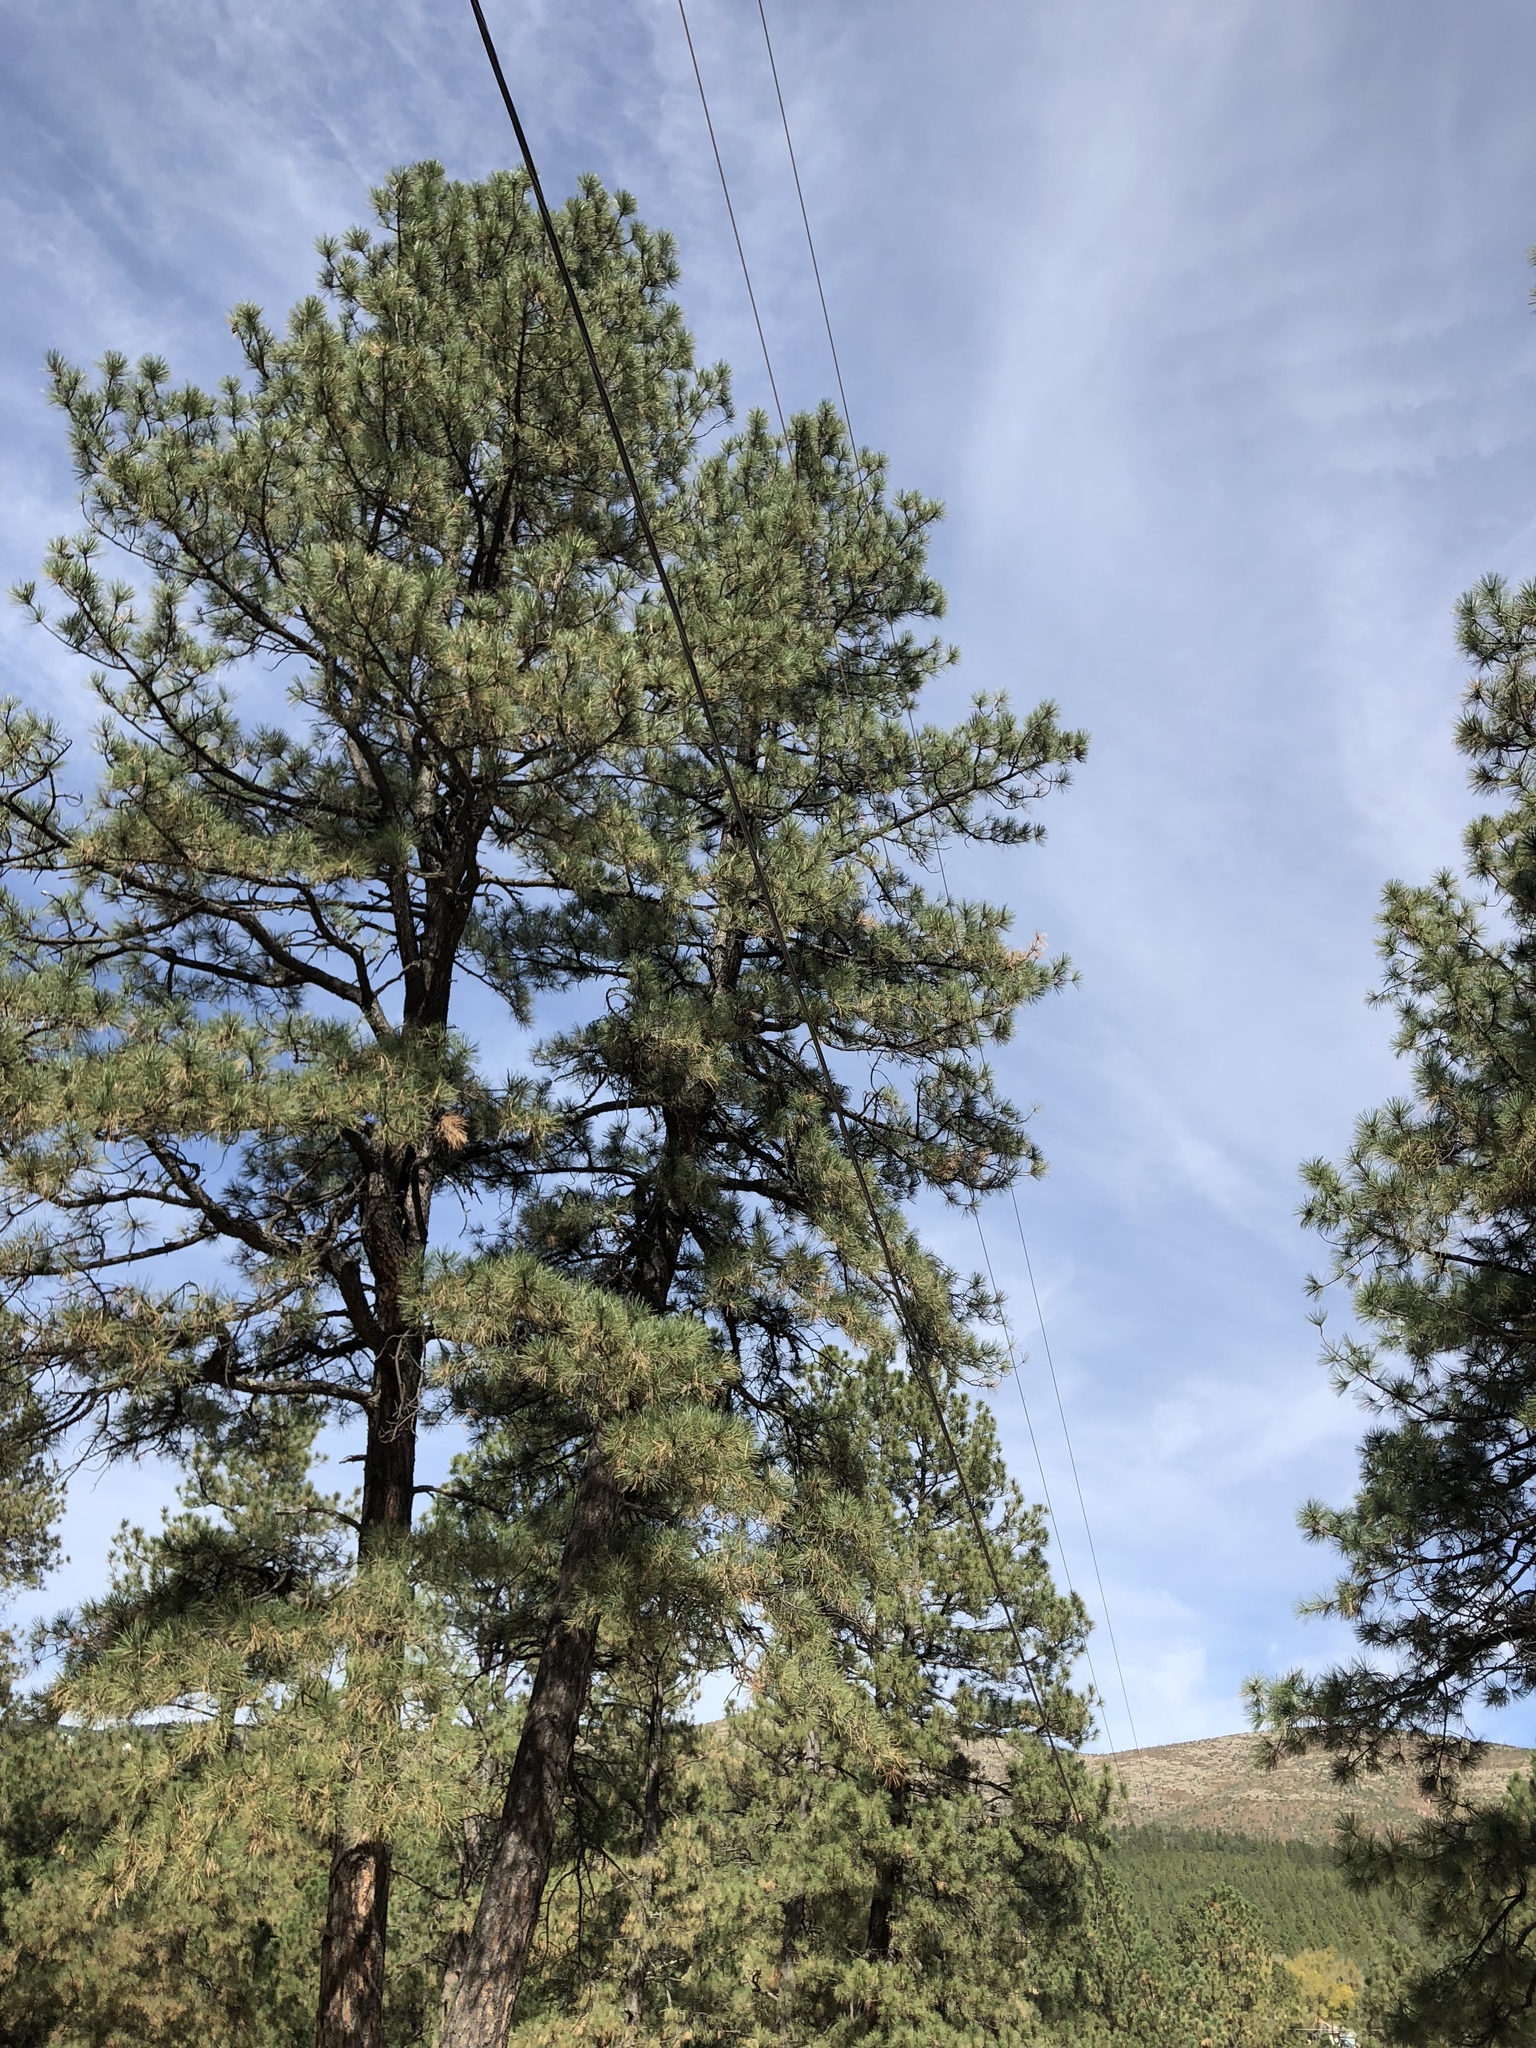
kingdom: Plantae
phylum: Tracheophyta
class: Pinopsida
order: Pinales
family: Pinaceae
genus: Pinus
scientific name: Pinus ponderosa
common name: Western yellow-pine
